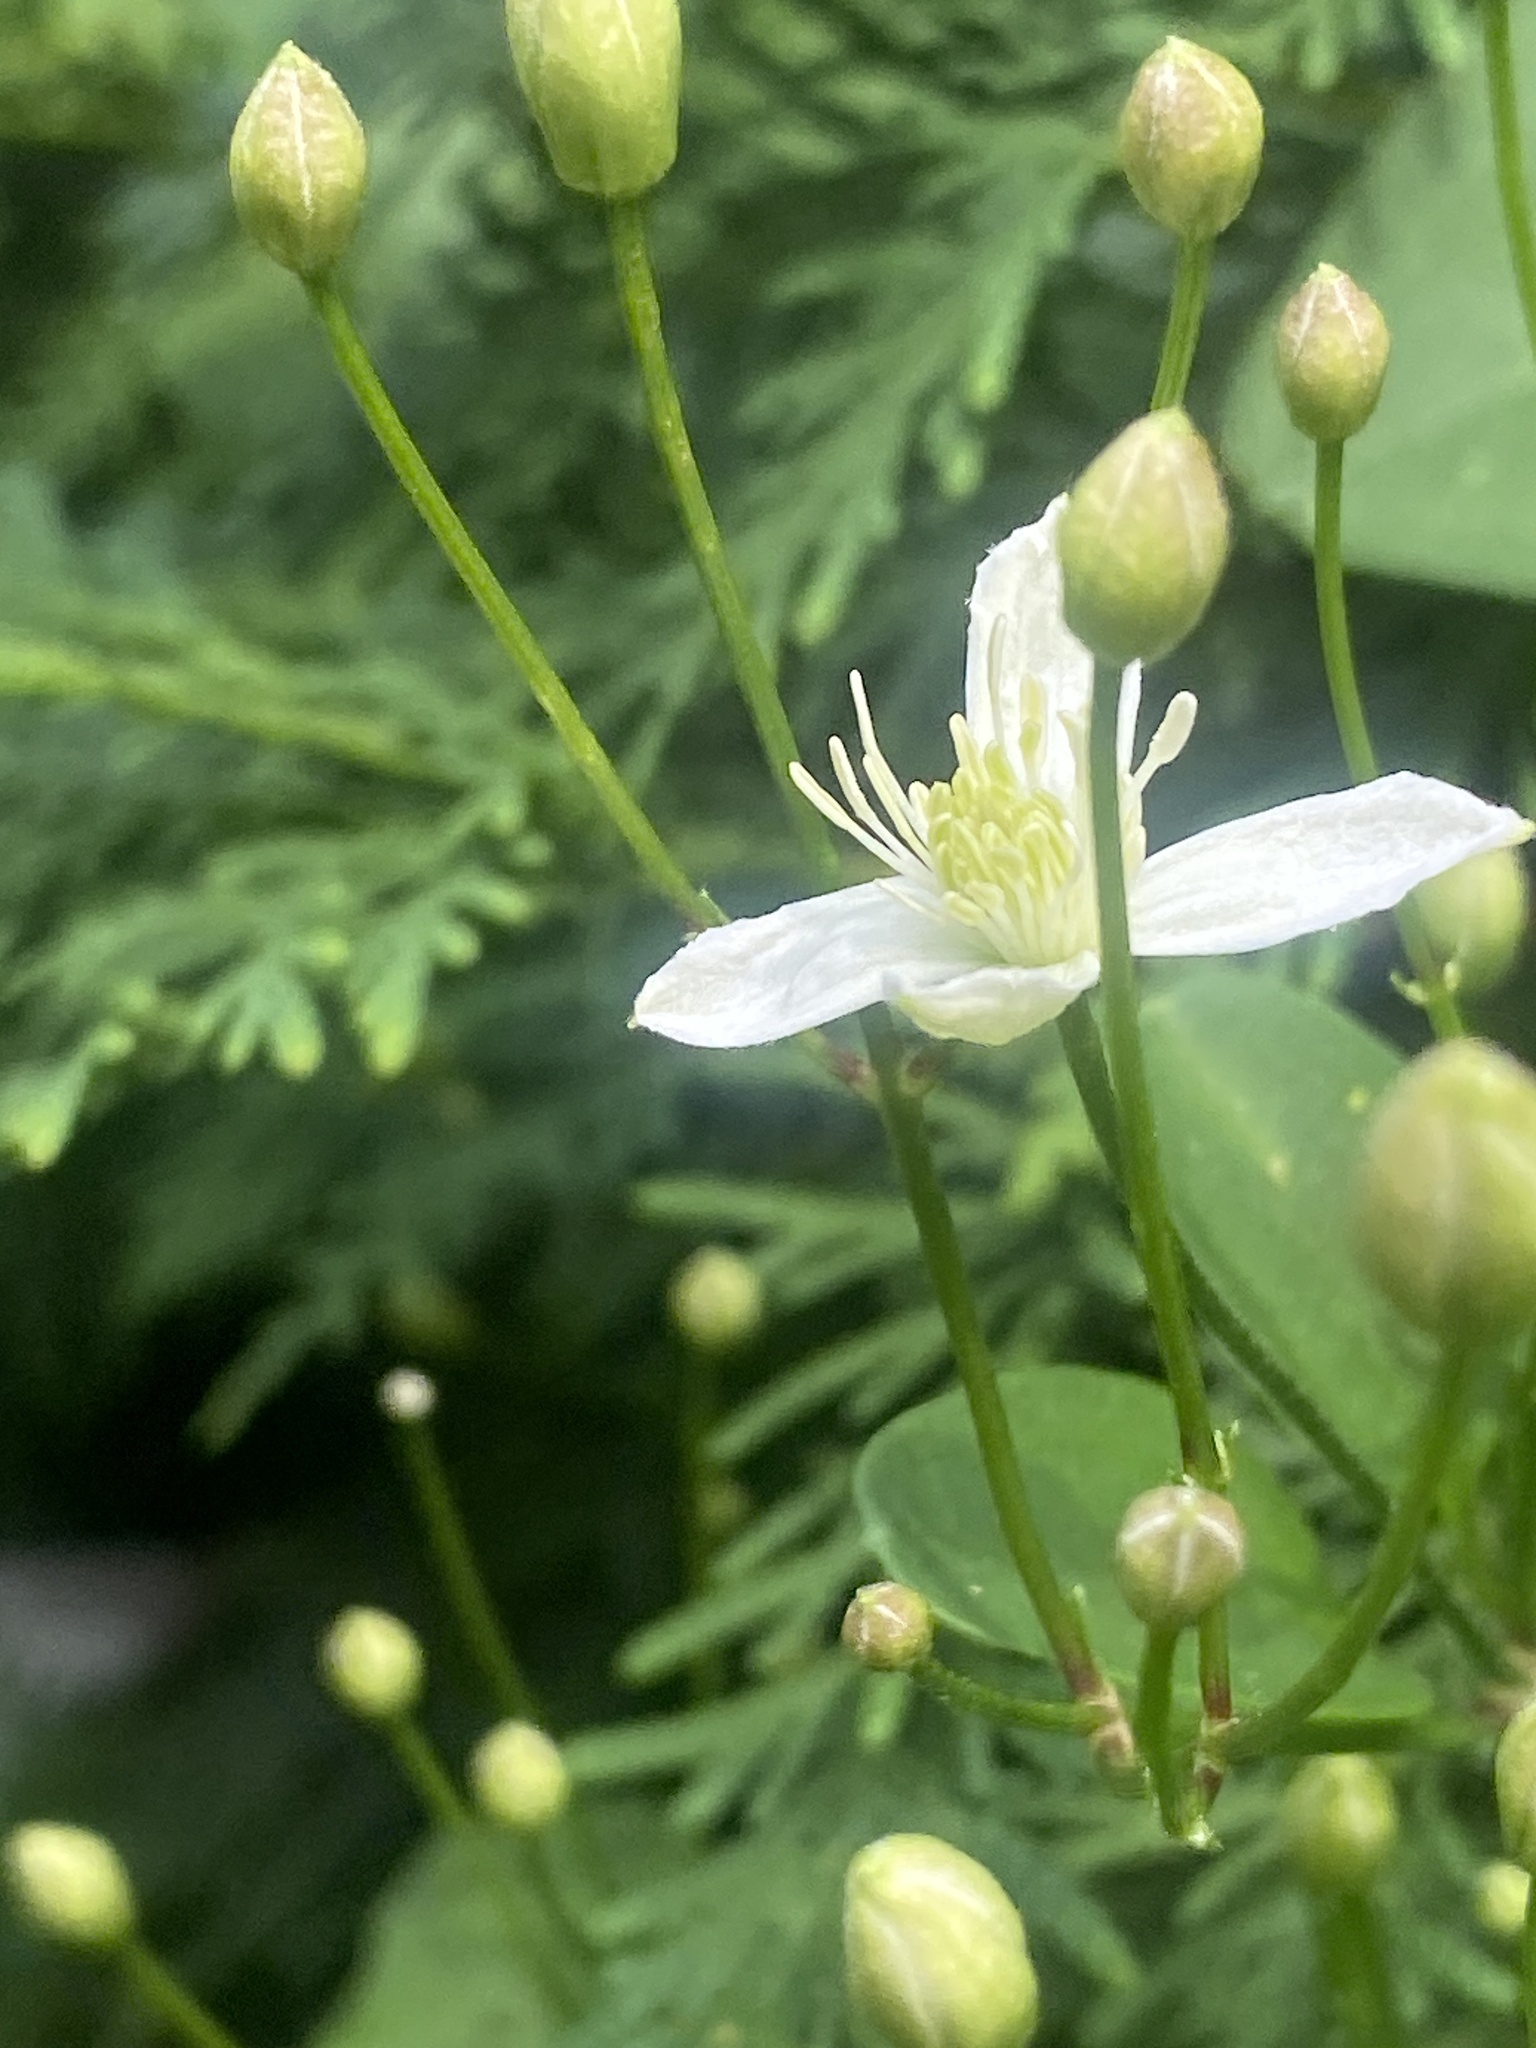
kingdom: Plantae
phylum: Tracheophyta
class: Magnoliopsida
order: Ranunculales
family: Ranunculaceae
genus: Clematis
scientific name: Clematis terniflora
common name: Sweet autumn clematis
